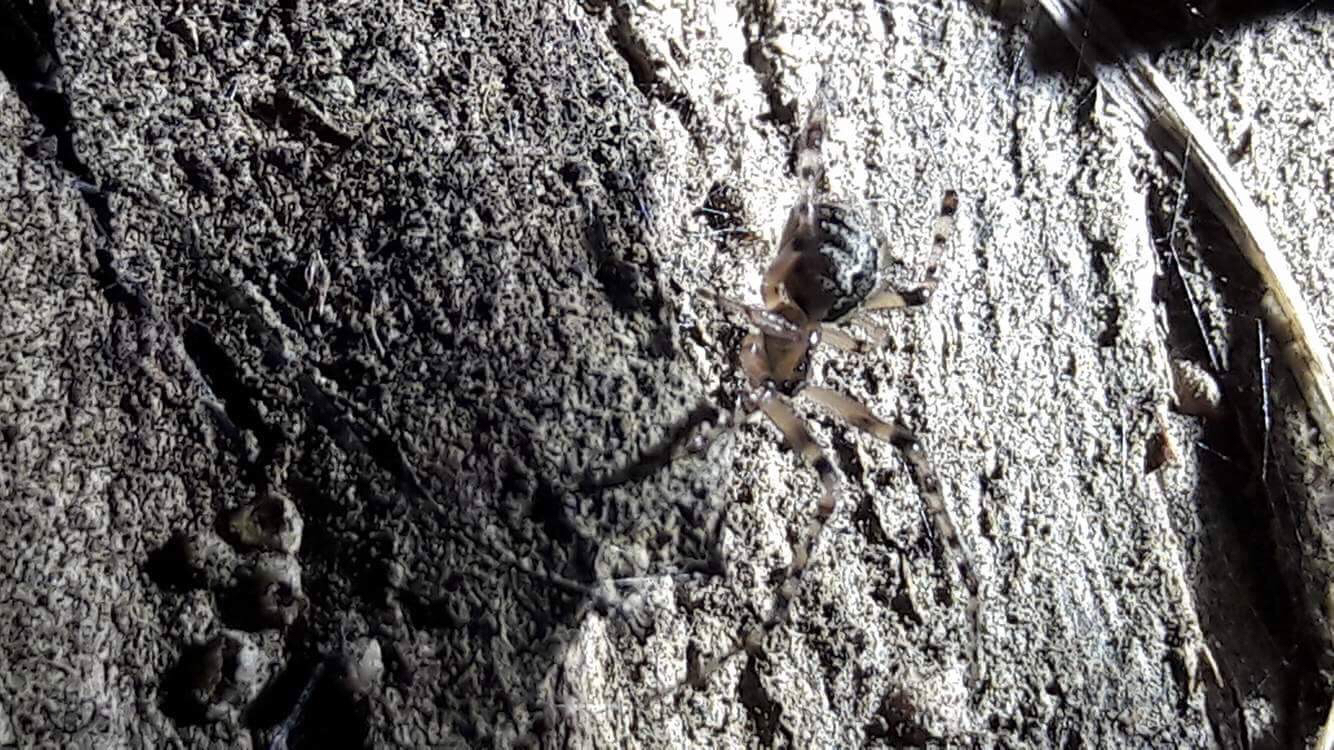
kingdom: Animalia
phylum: Arthropoda
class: Arachnida
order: Araneae
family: Theridiidae
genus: Cryptachaea
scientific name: Cryptachaea veruculata
